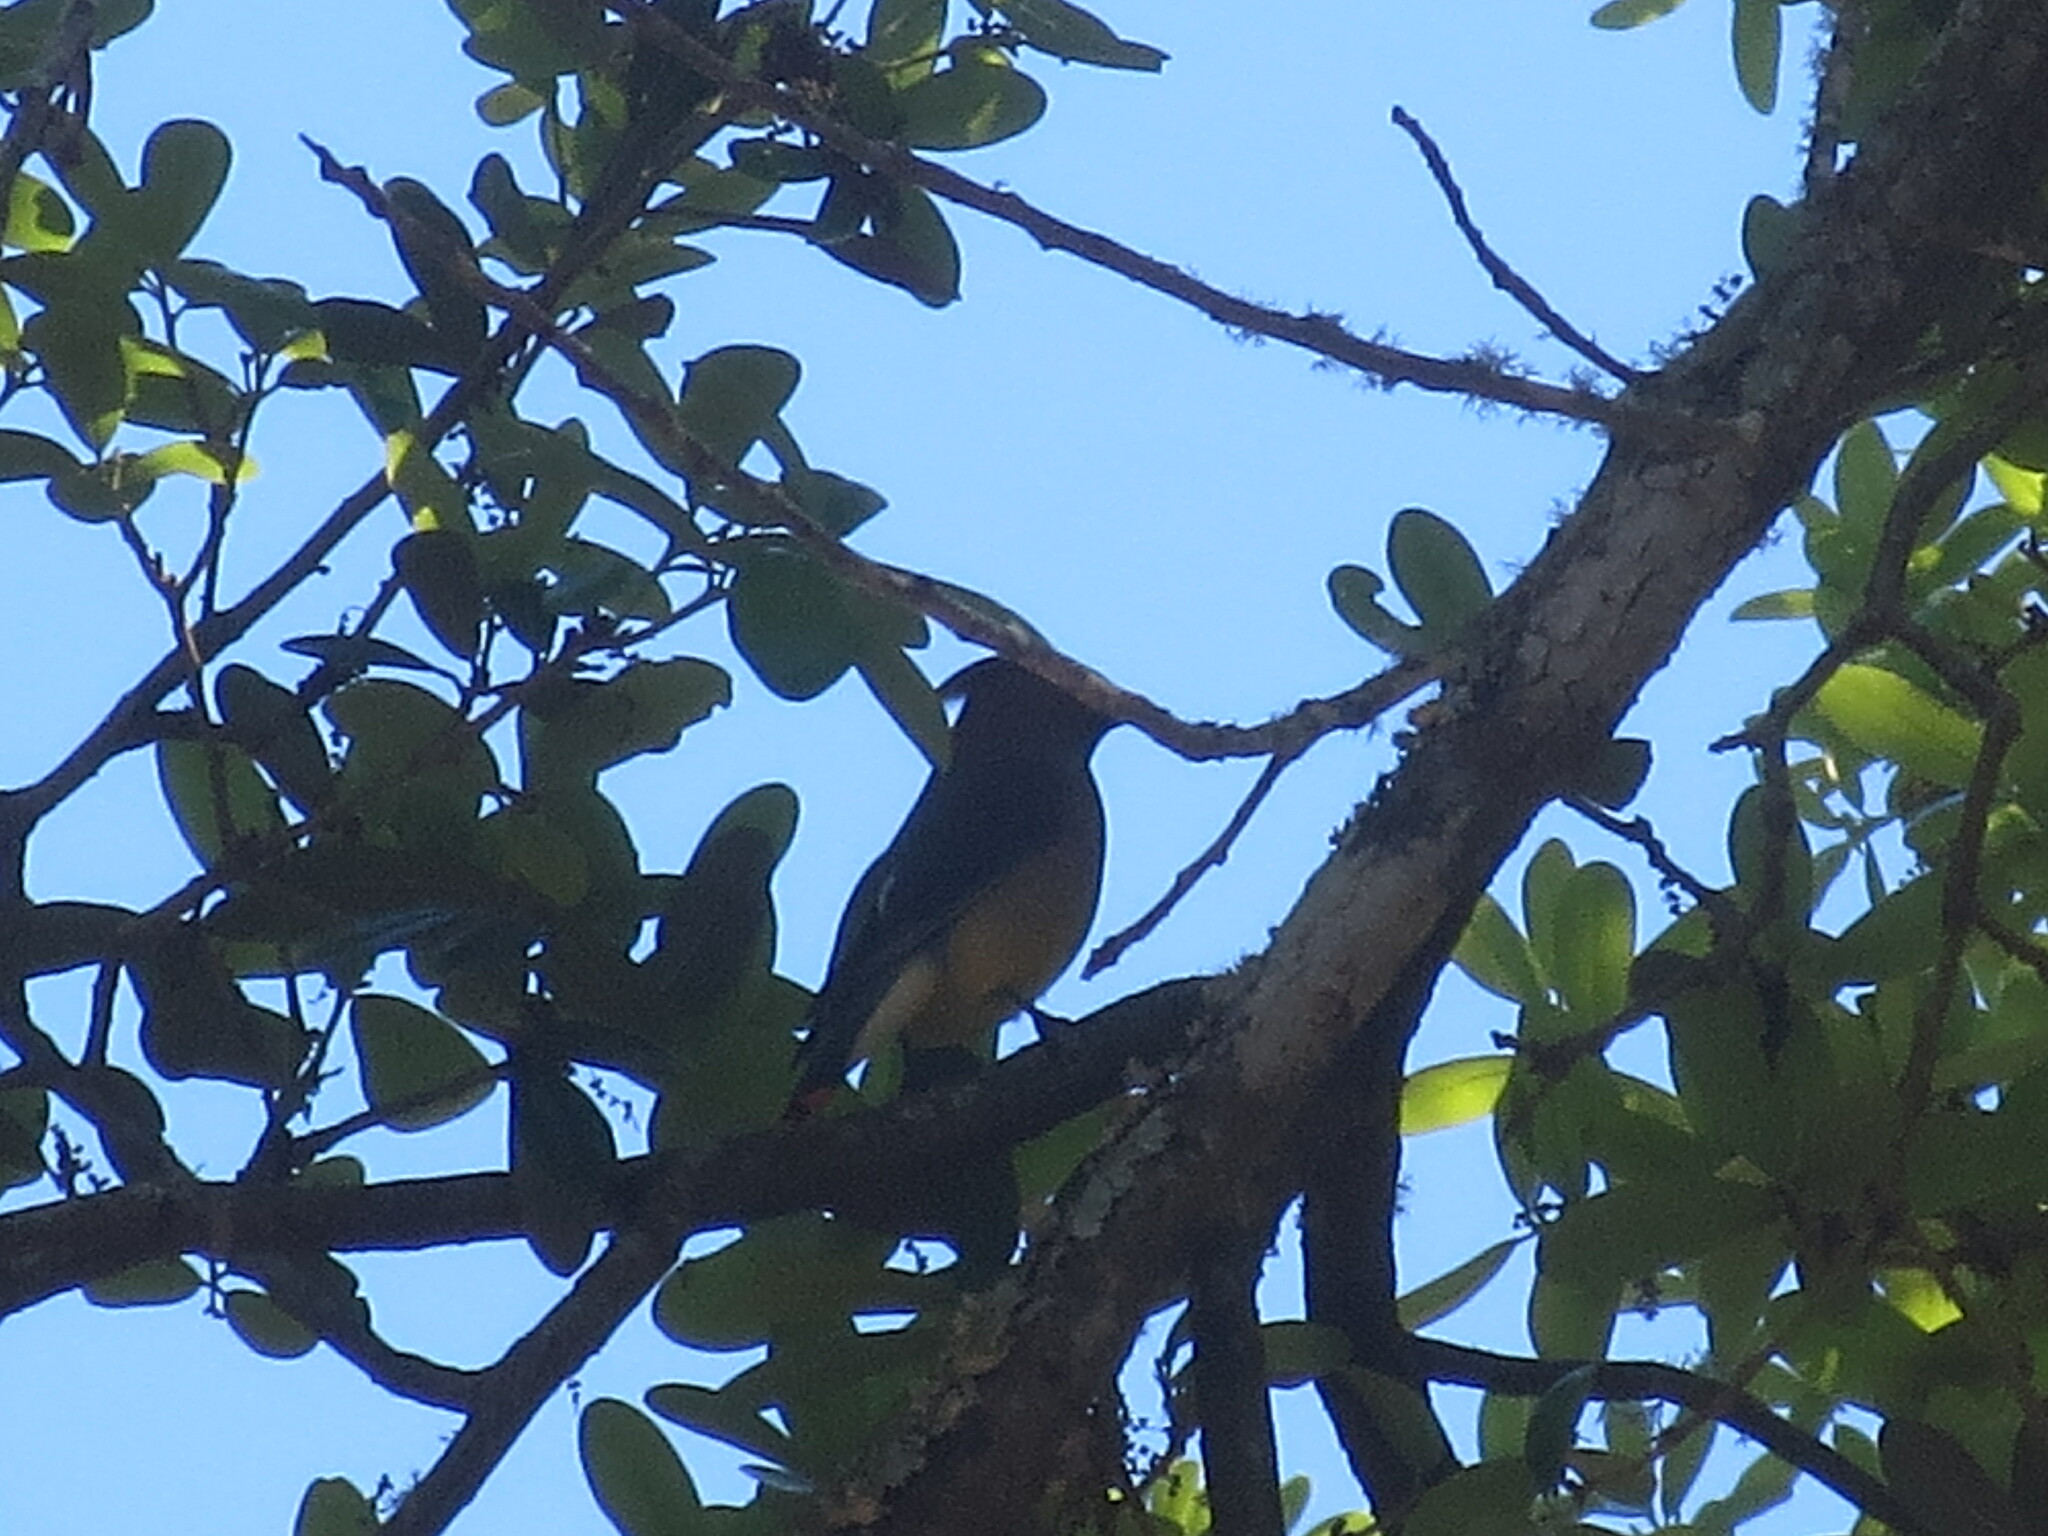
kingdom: Animalia
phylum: Chordata
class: Aves
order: Passeriformes
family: Bombycillidae
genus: Bombycilla
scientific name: Bombycilla cedrorum
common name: Cedar waxwing
